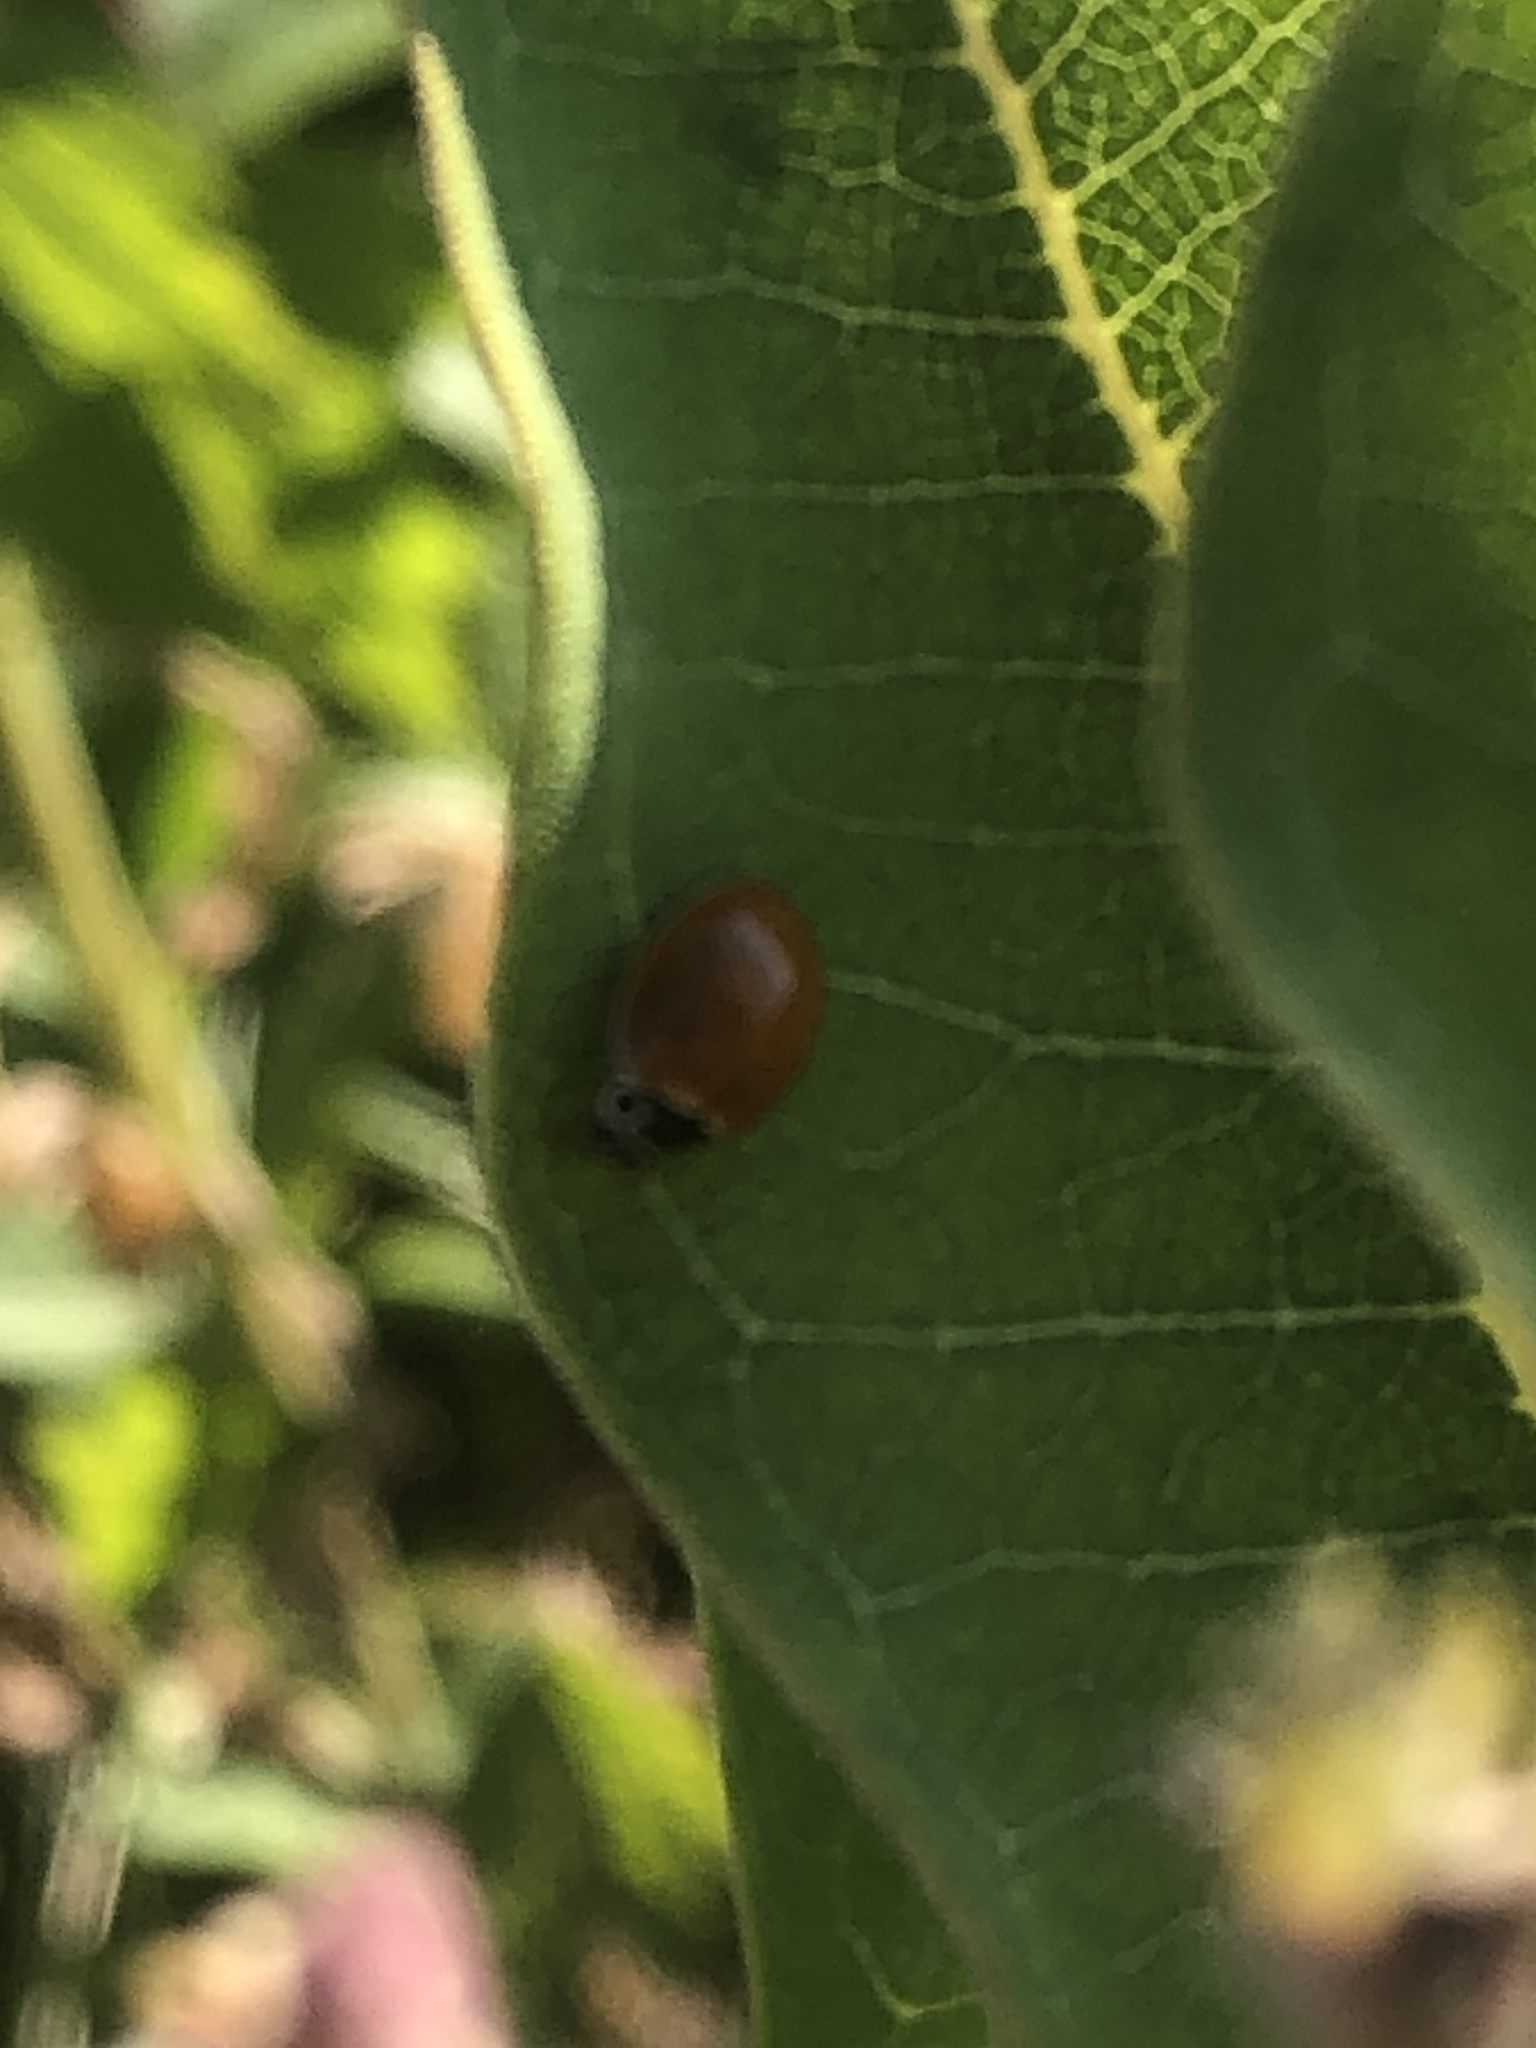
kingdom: Animalia
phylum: Arthropoda
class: Insecta
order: Coleoptera
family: Coccinellidae
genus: Cycloneda
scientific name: Cycloneda munda
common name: Polished lady beetle
